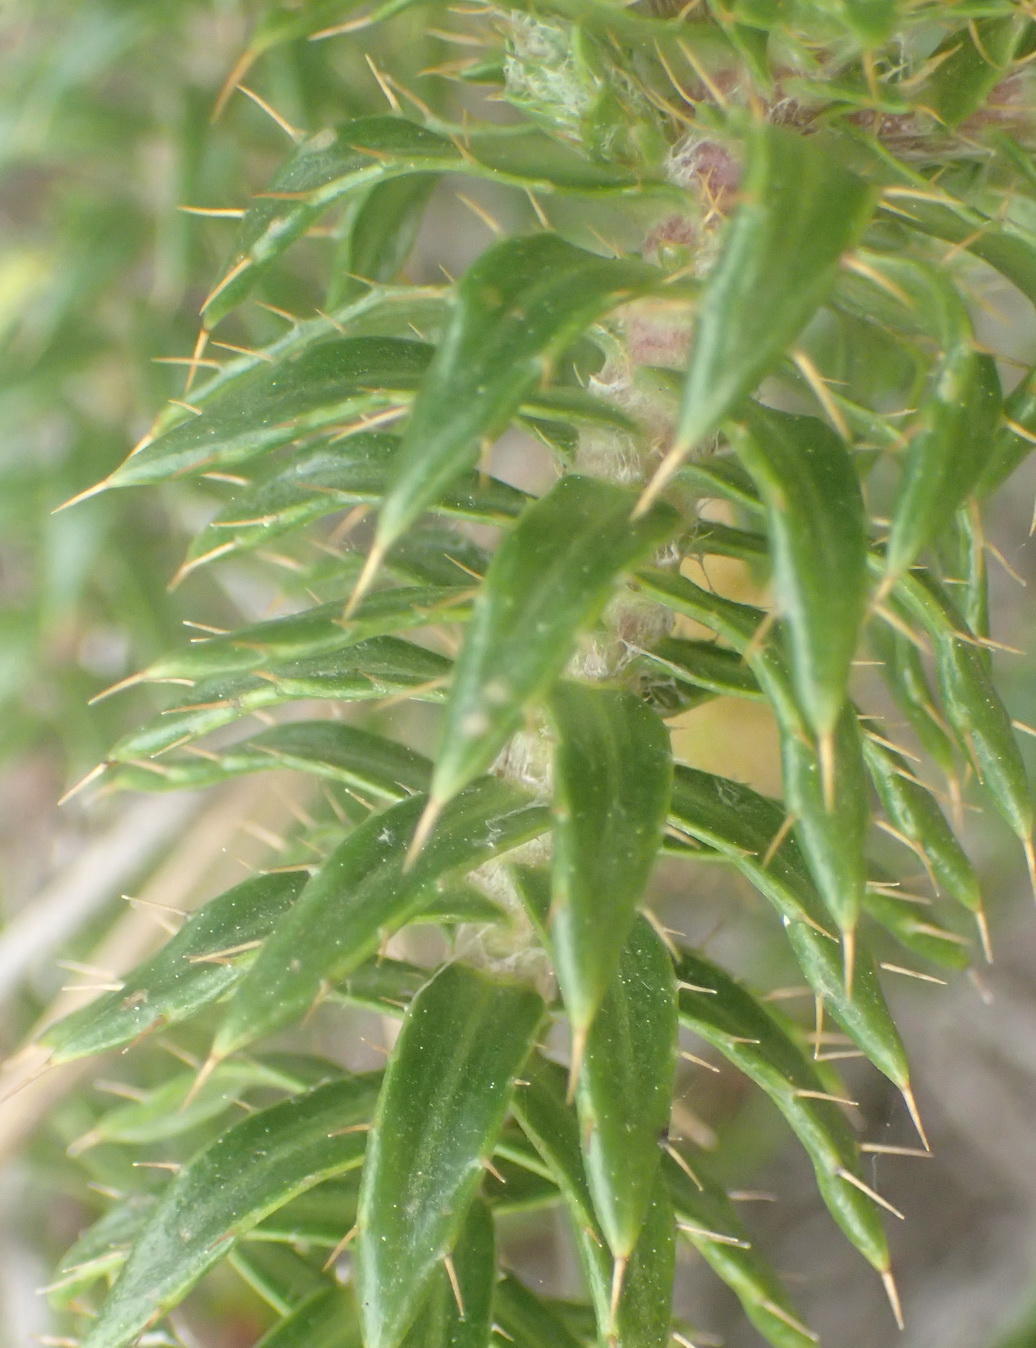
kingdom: Plantae
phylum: Tracheophyta
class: Magnoliopsida
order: Asterales
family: Asteraceae
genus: Cullumia
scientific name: Cullumia carlinoides
